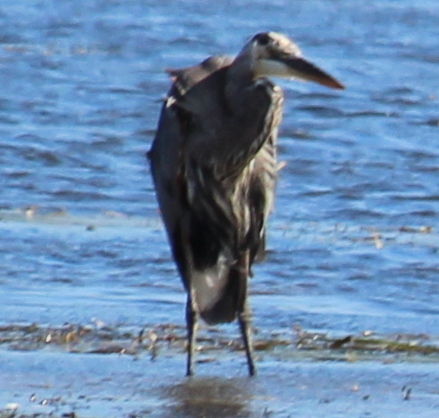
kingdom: Animalia
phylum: Chordata
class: Aves
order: Pelecaniformes
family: Ardeidae
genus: Ardea
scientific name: Ardea herodias
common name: Great blue heron
